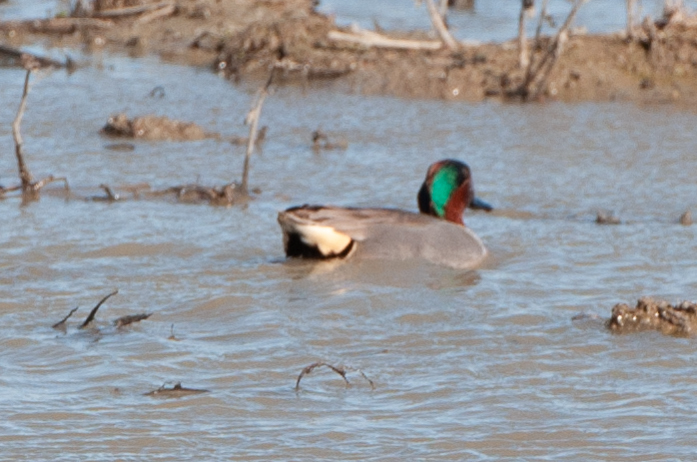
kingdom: Animalia
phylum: Chordata
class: Aves
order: Anseriformes
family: Anatidae
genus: Anas
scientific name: Anas crecca
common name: Eurasian teal
